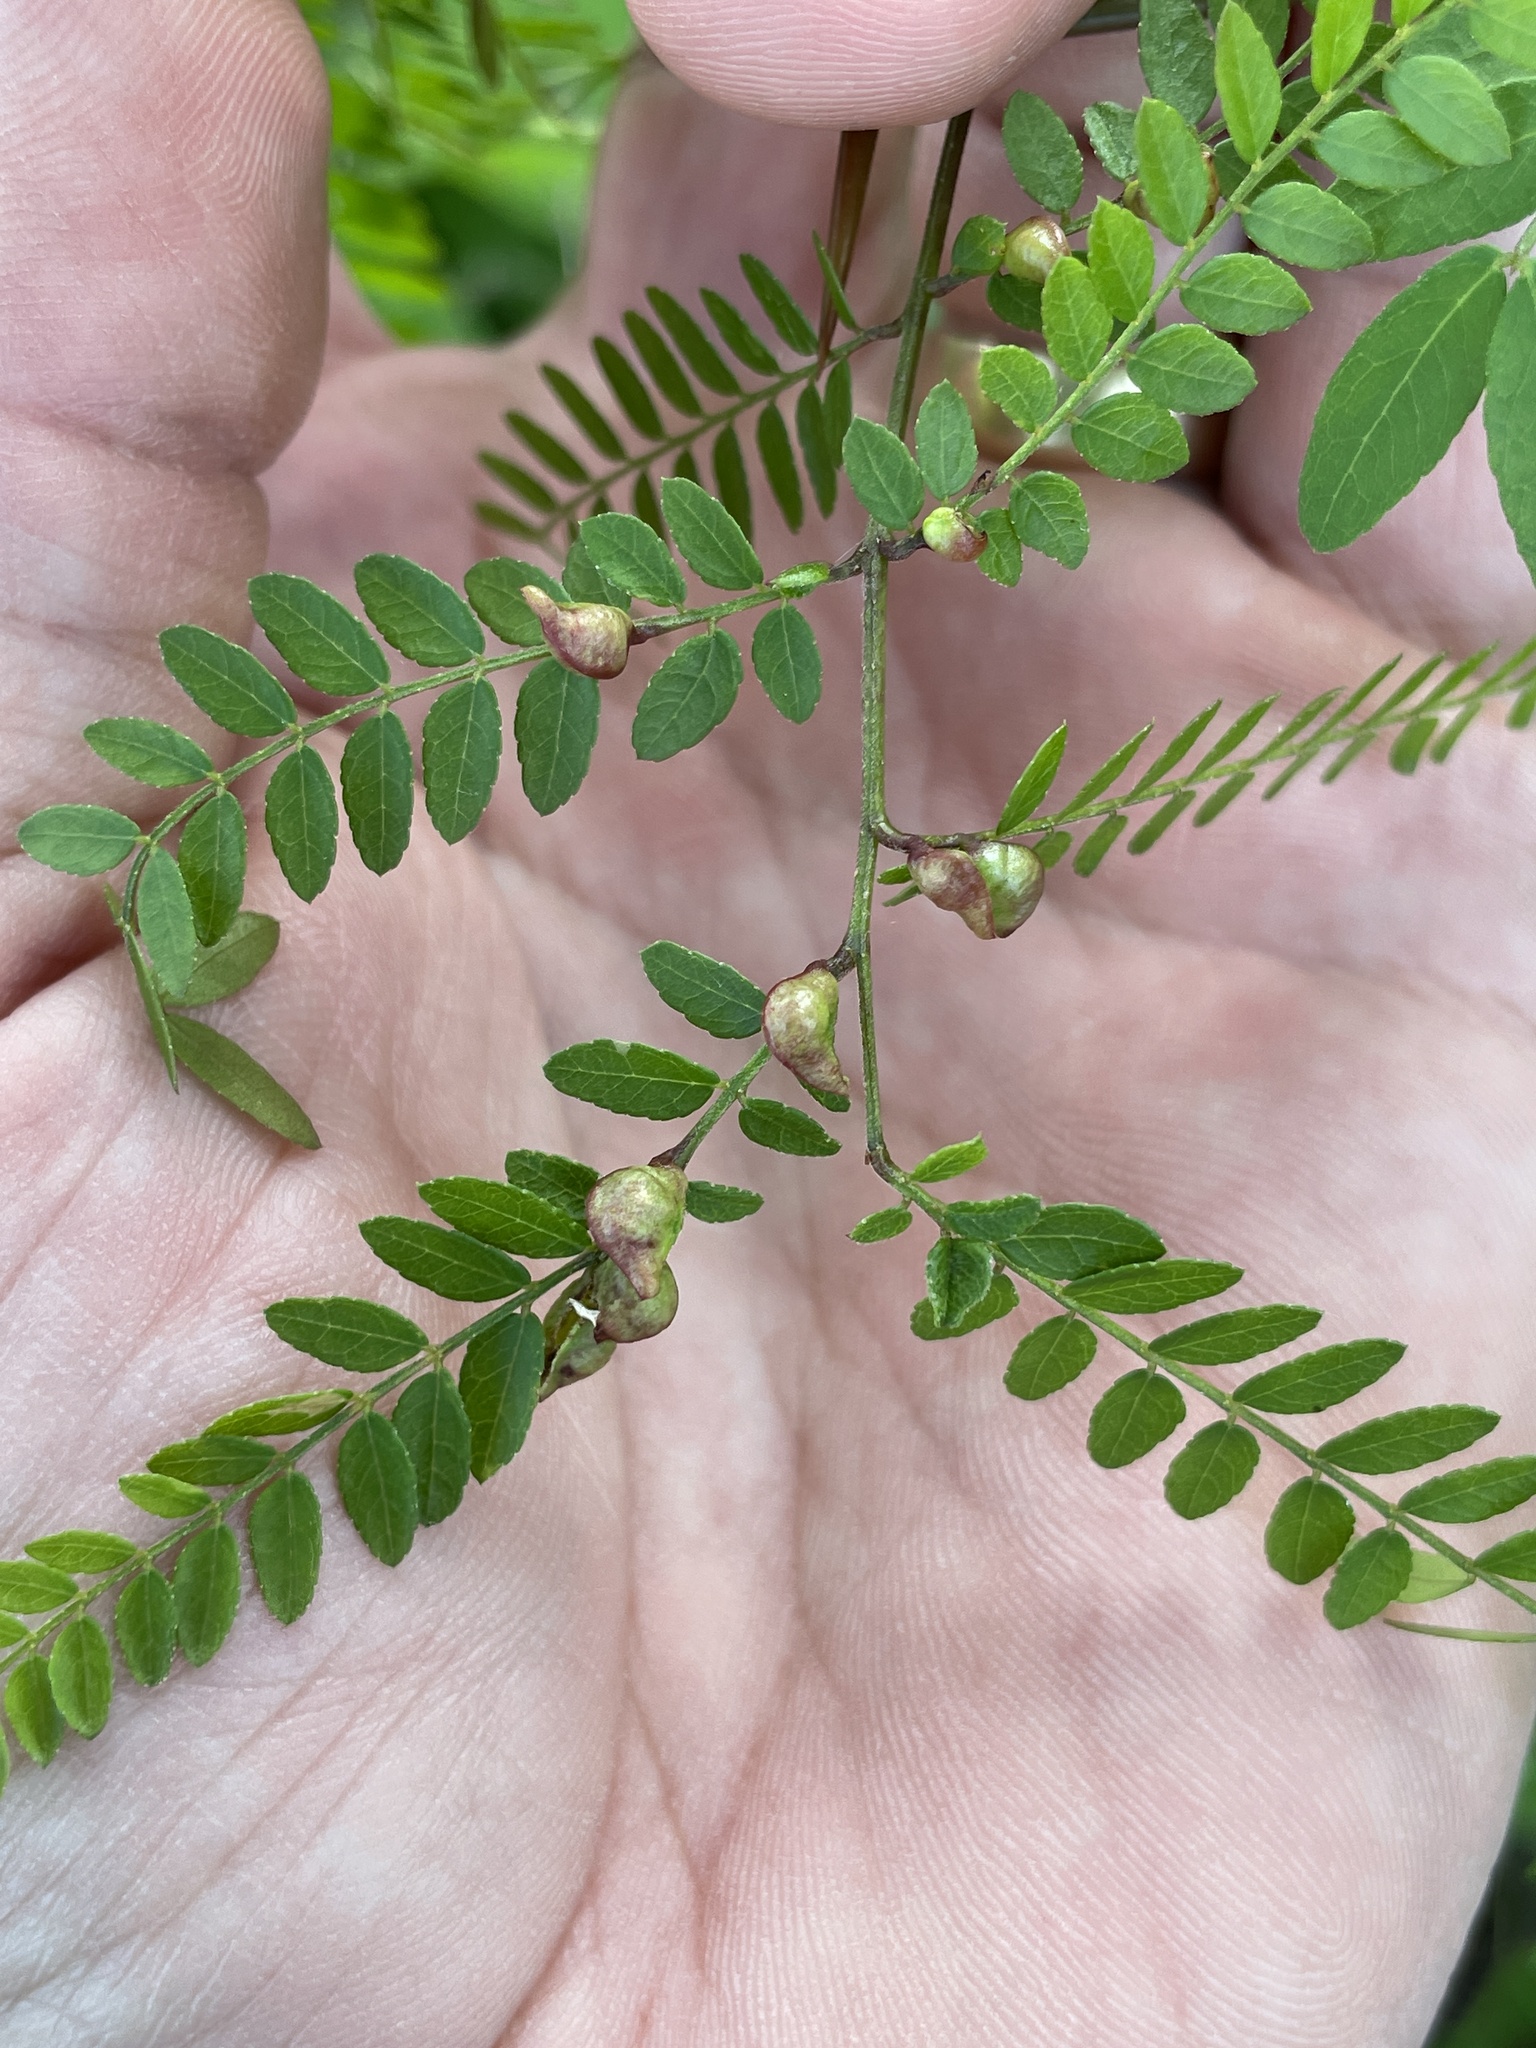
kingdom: Animalia
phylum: Arthropoda
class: Insecta
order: Diptera
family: Cecidomyiidae
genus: Dasineura
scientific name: Dasineura gleditchiae
